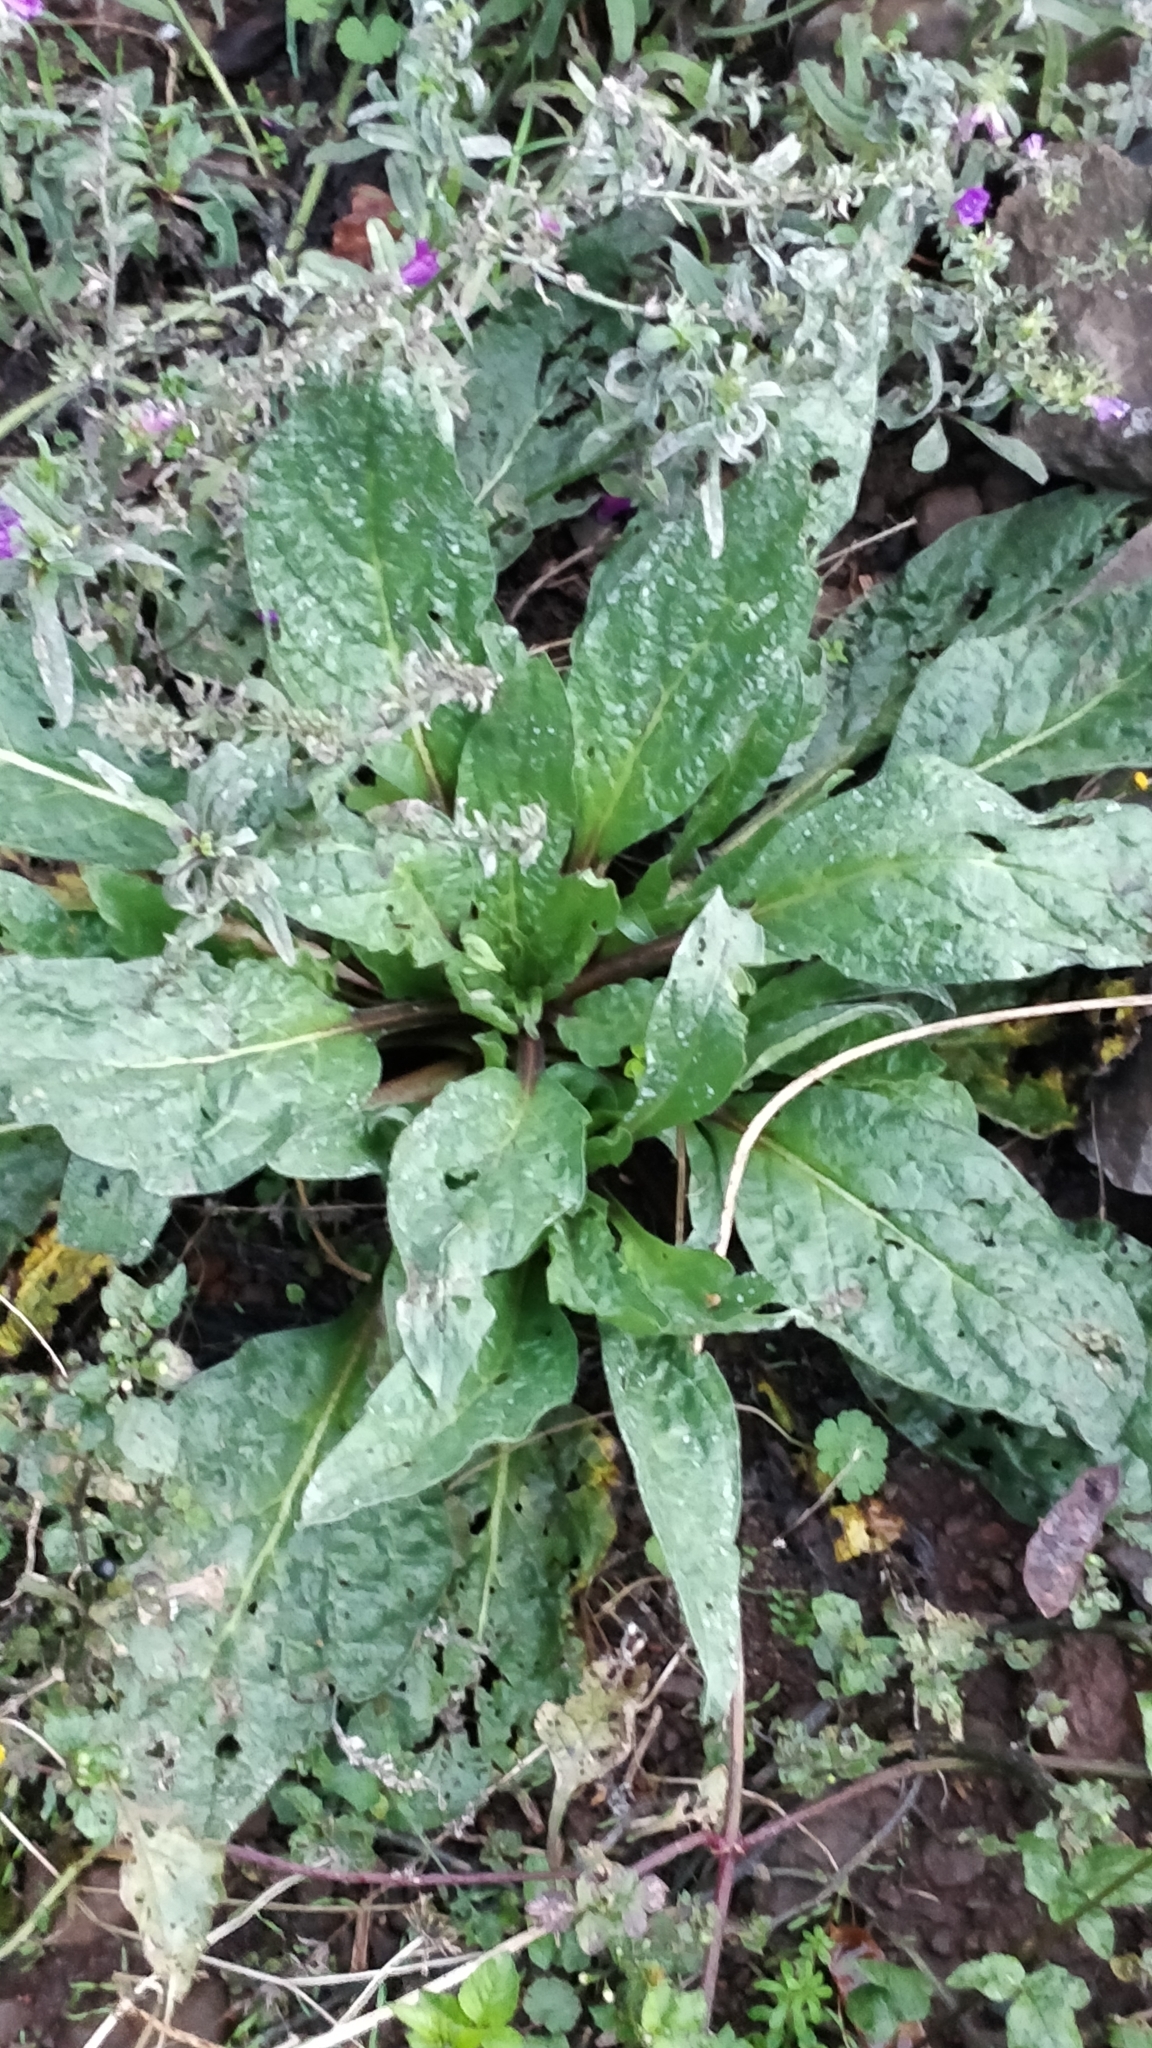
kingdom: Plantae
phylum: Tracheophyta
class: Magnoliopsida
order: Boraginales
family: Boraginaceae
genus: Echium
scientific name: Echium plantagineum
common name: Purple viper's-bugloss
